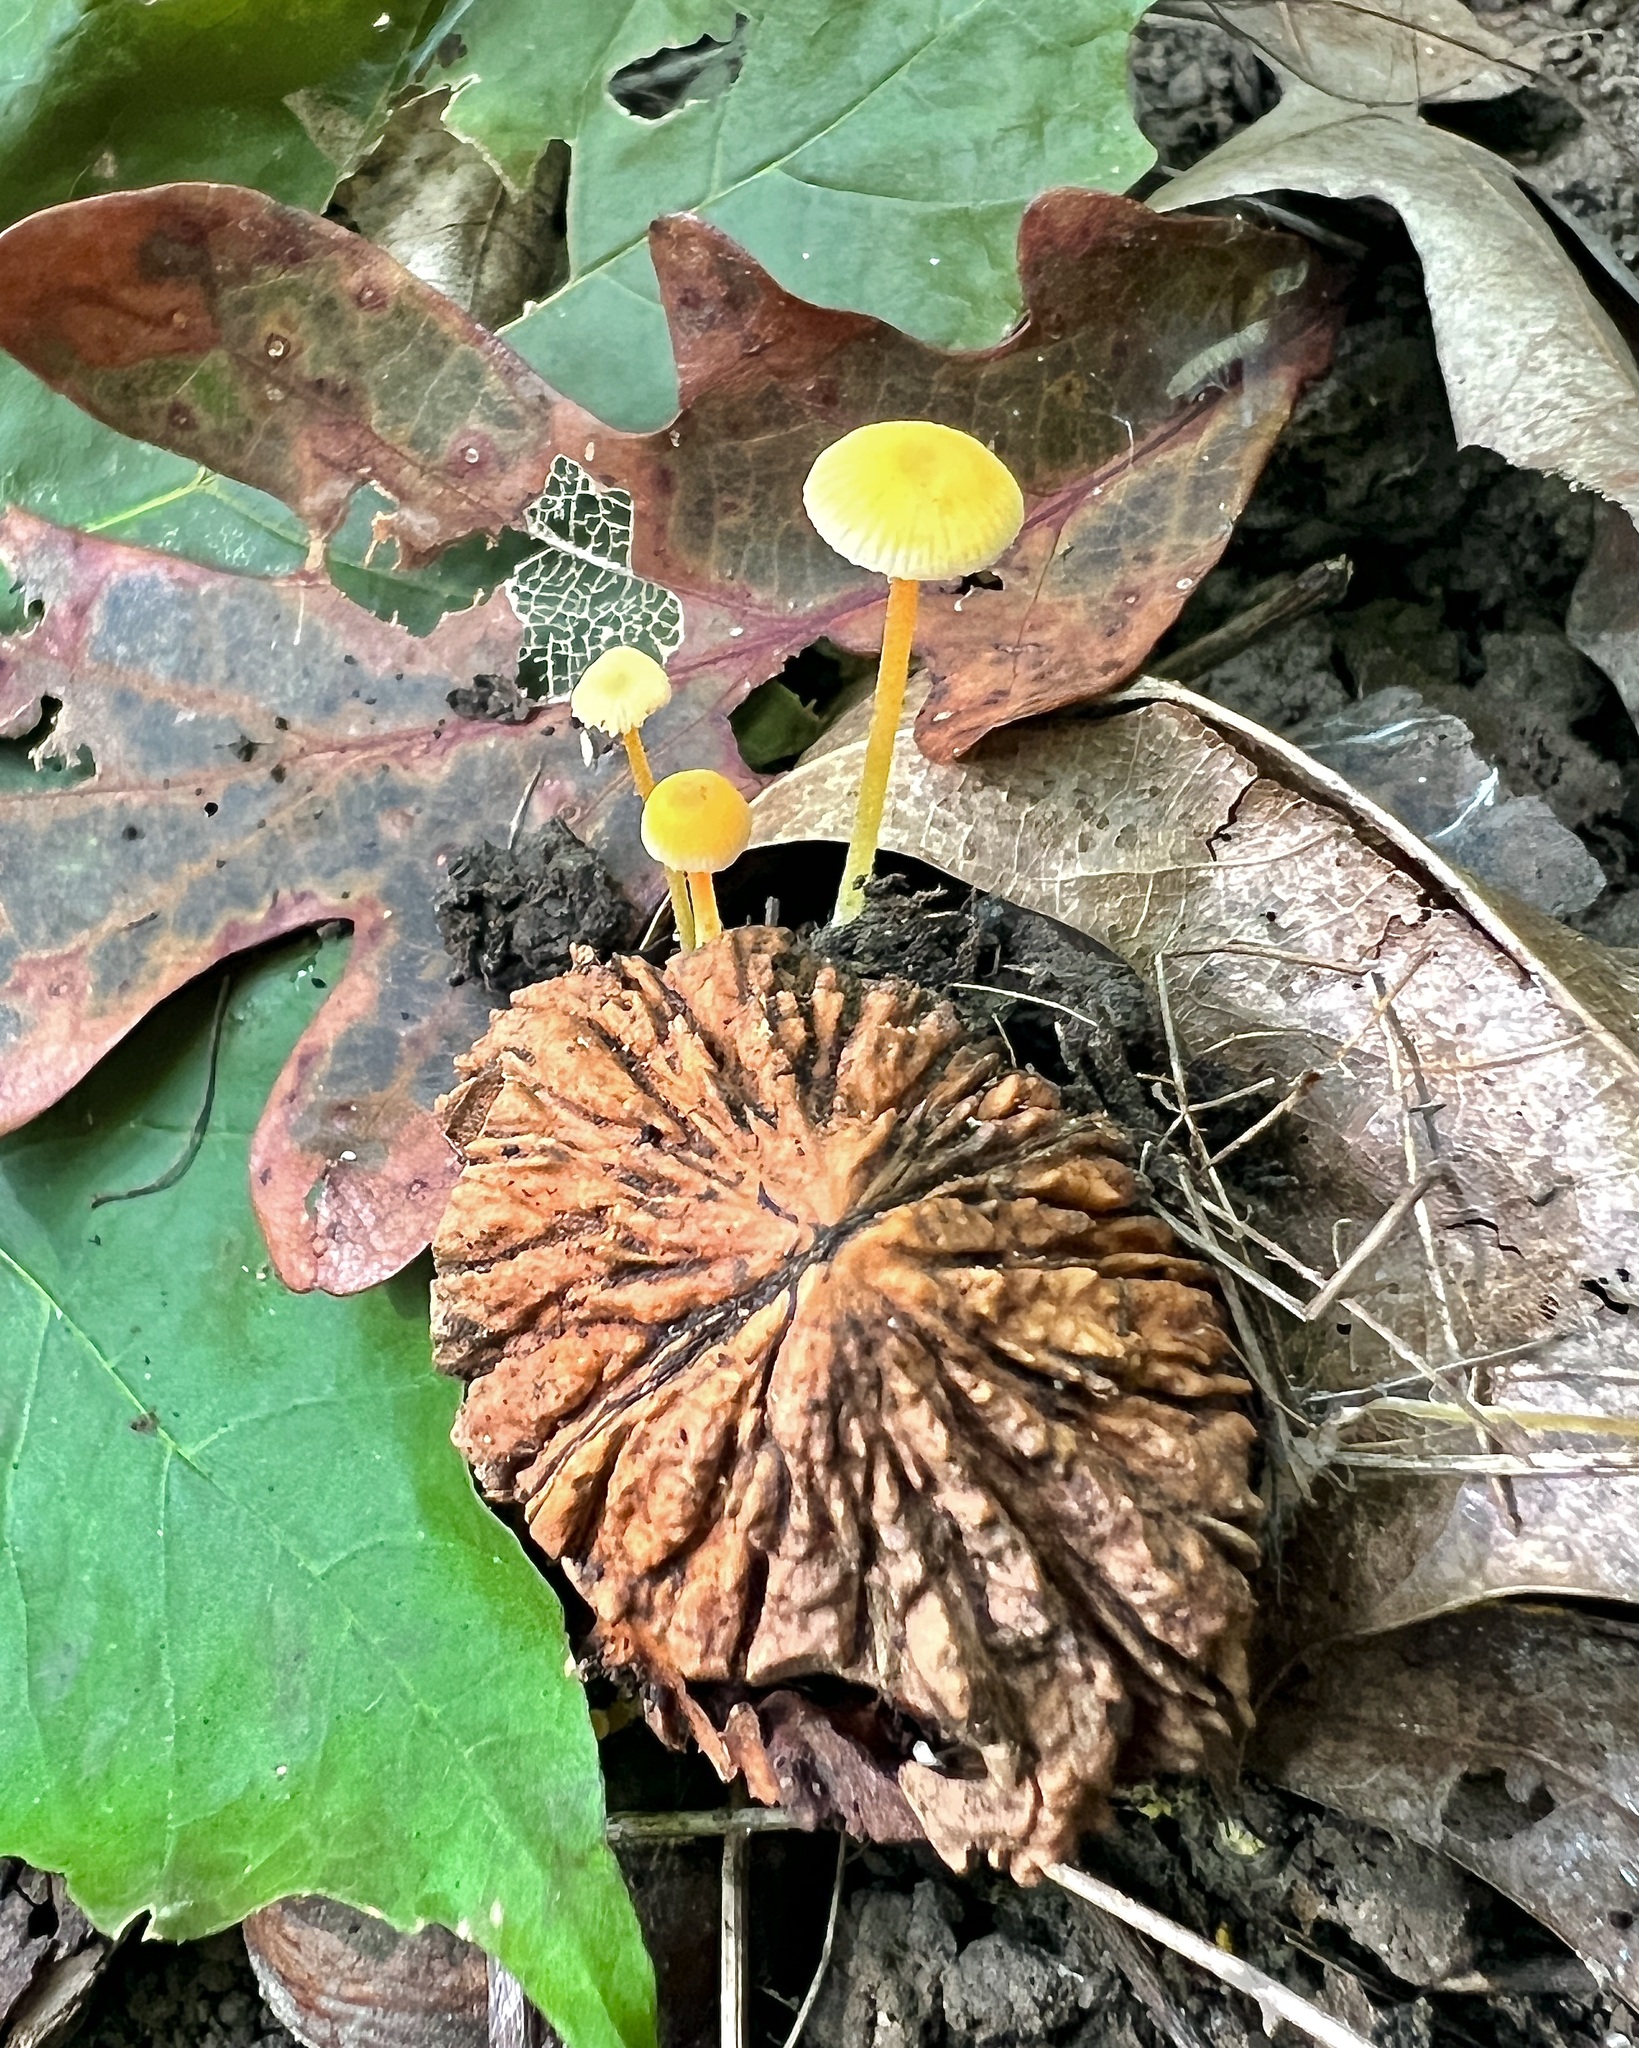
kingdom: Fungi
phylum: Basidiomycota
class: Agaricomycetes
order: Agaricales
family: Mycenaceae
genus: Mycena
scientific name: Mycena crocea
